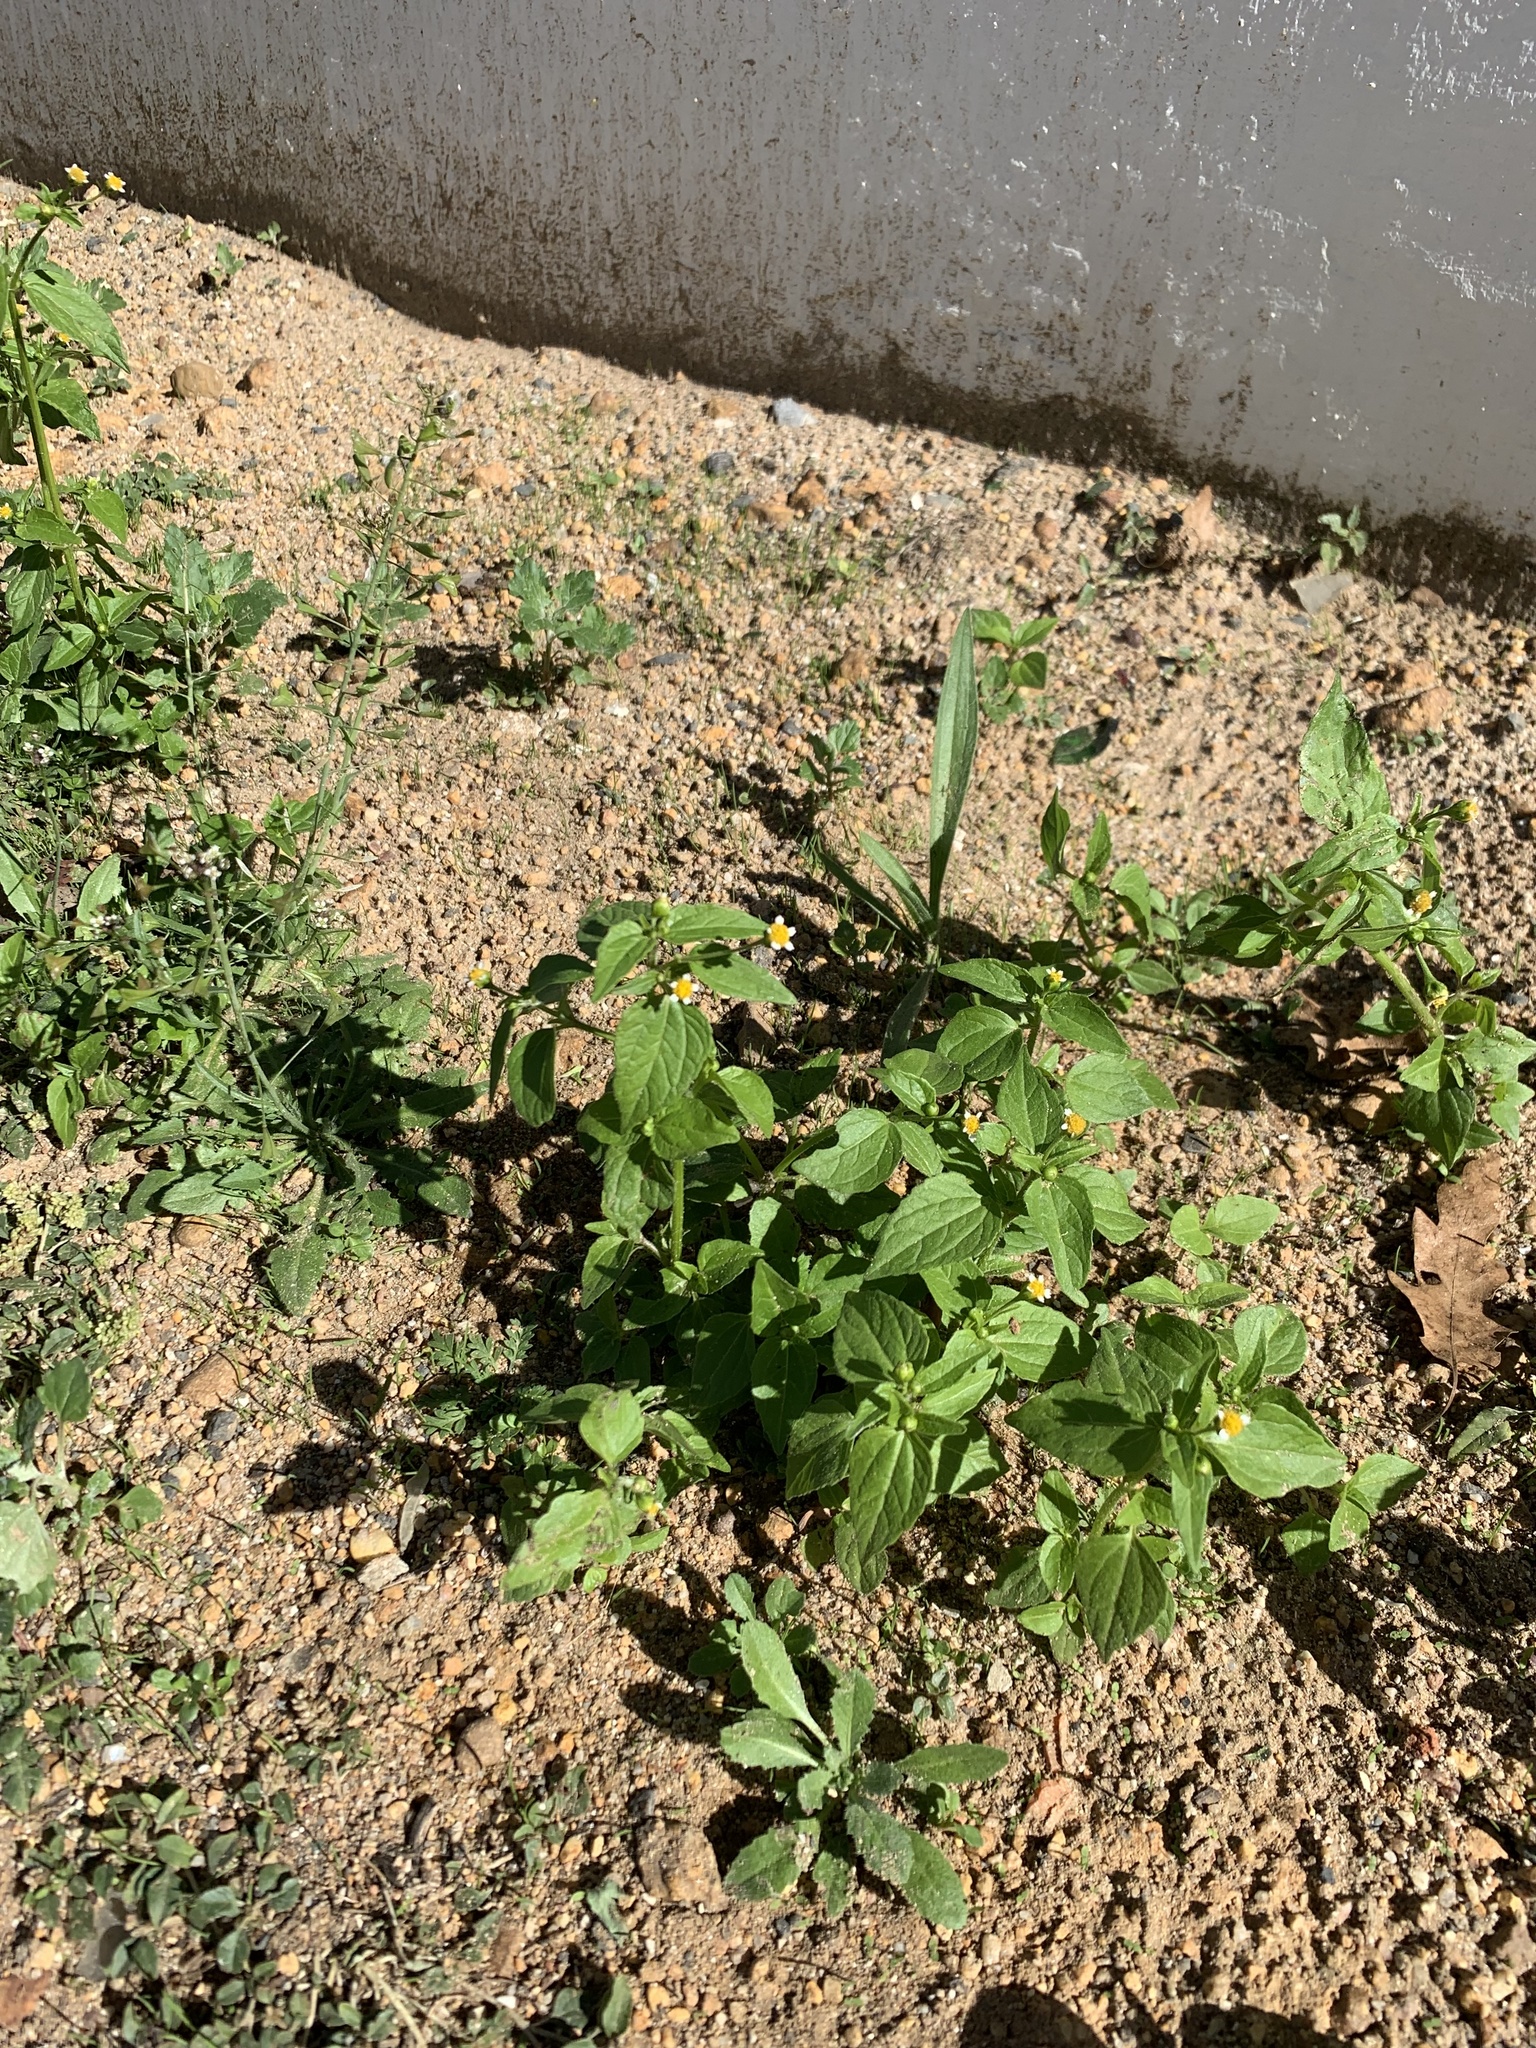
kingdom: Plantae
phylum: Tracheophyta
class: Magnoliopsida
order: Asterales
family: Asteraceae
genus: Galinsoga
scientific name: Galinsoga parviflora
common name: Gallant soldier
